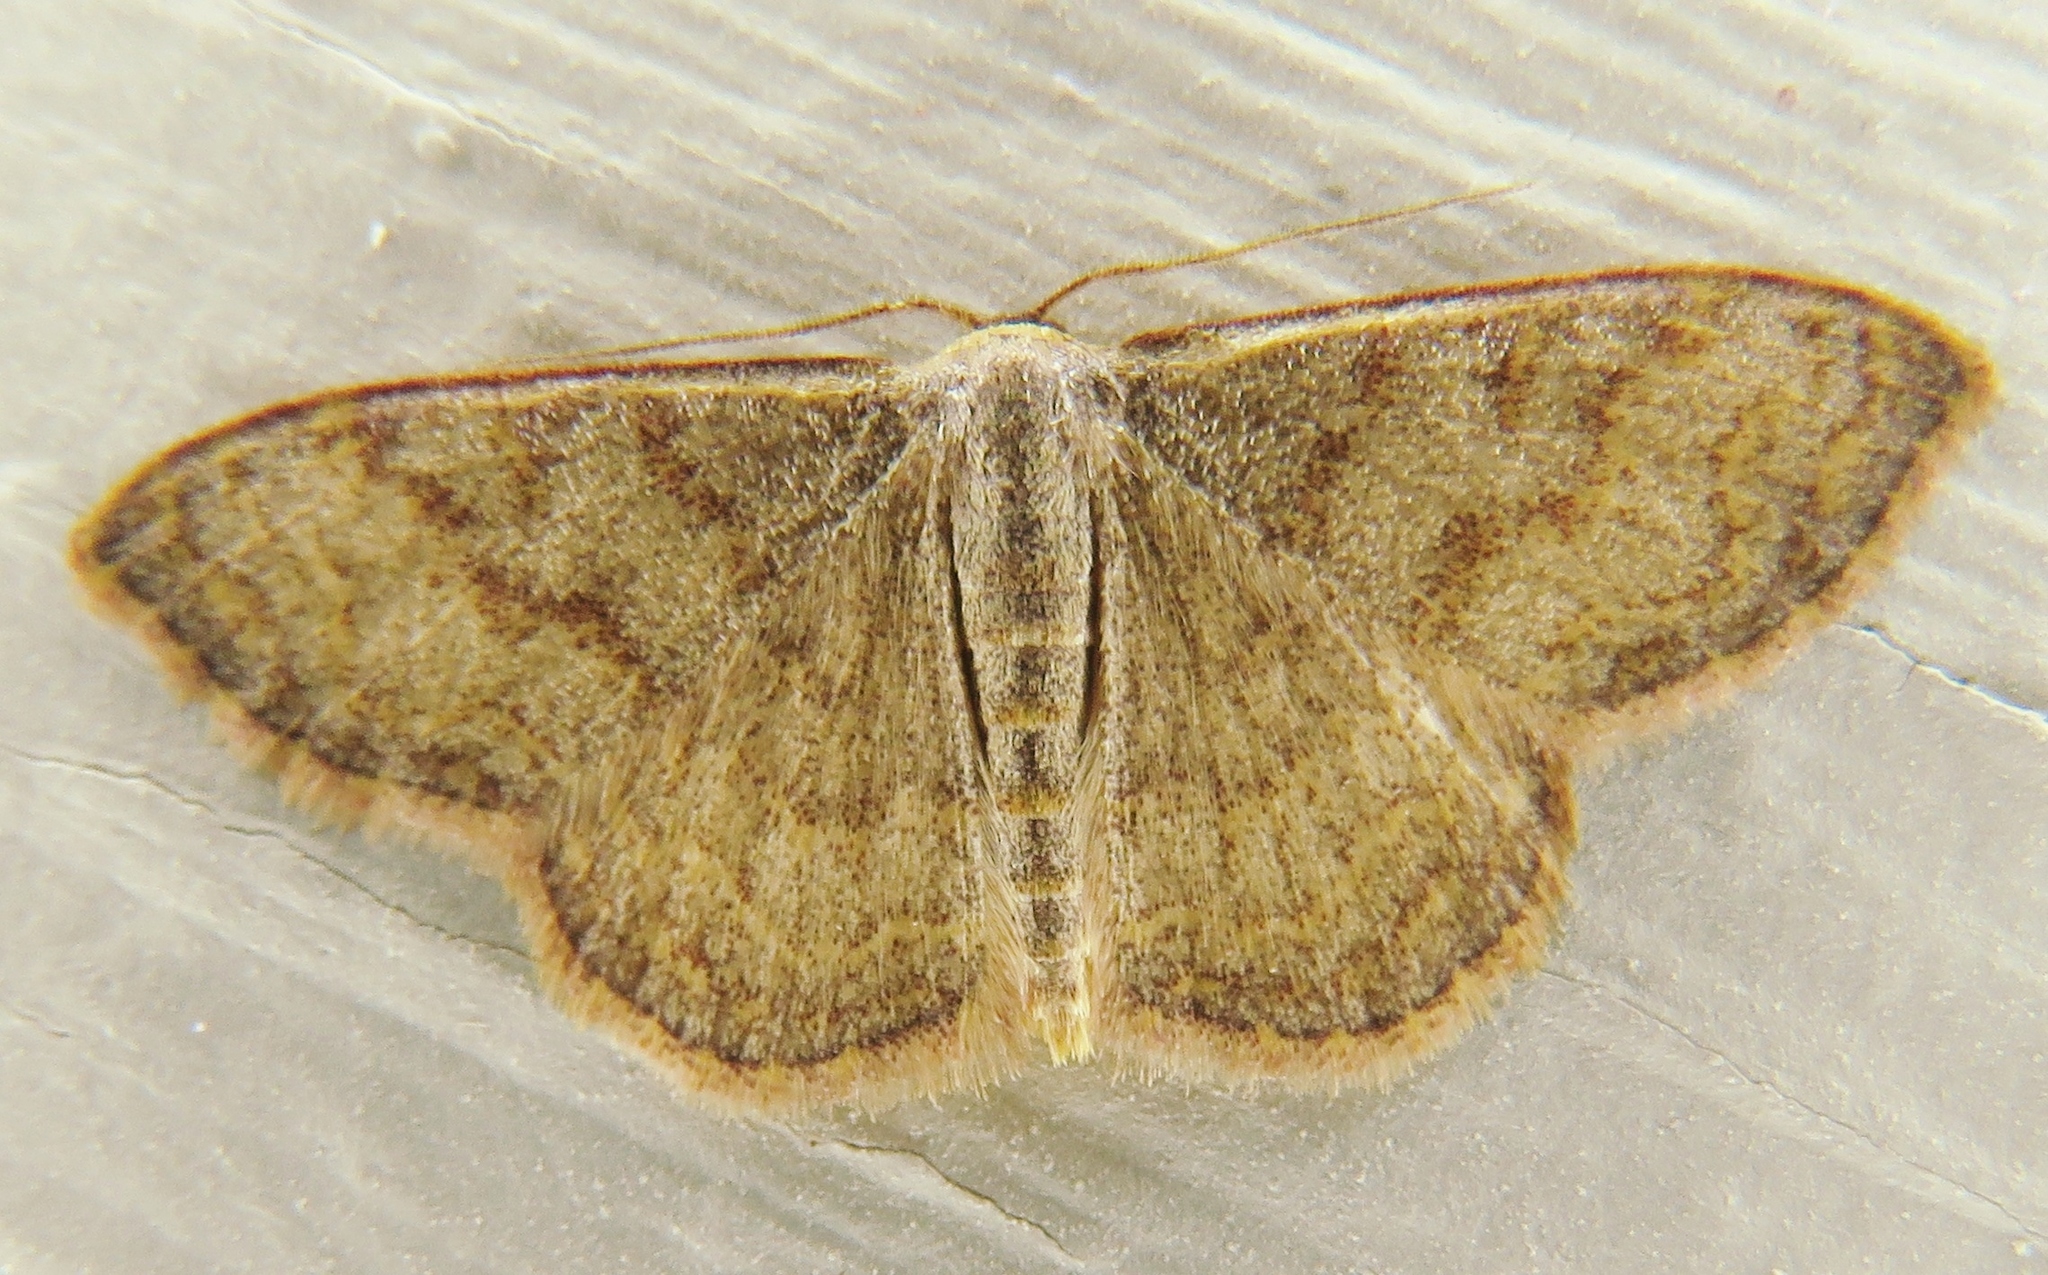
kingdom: Animalia
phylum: Arthropoda
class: Insecta
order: Lepidoptera
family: Geometridae
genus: Leptostales
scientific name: Leptostales pannaria
